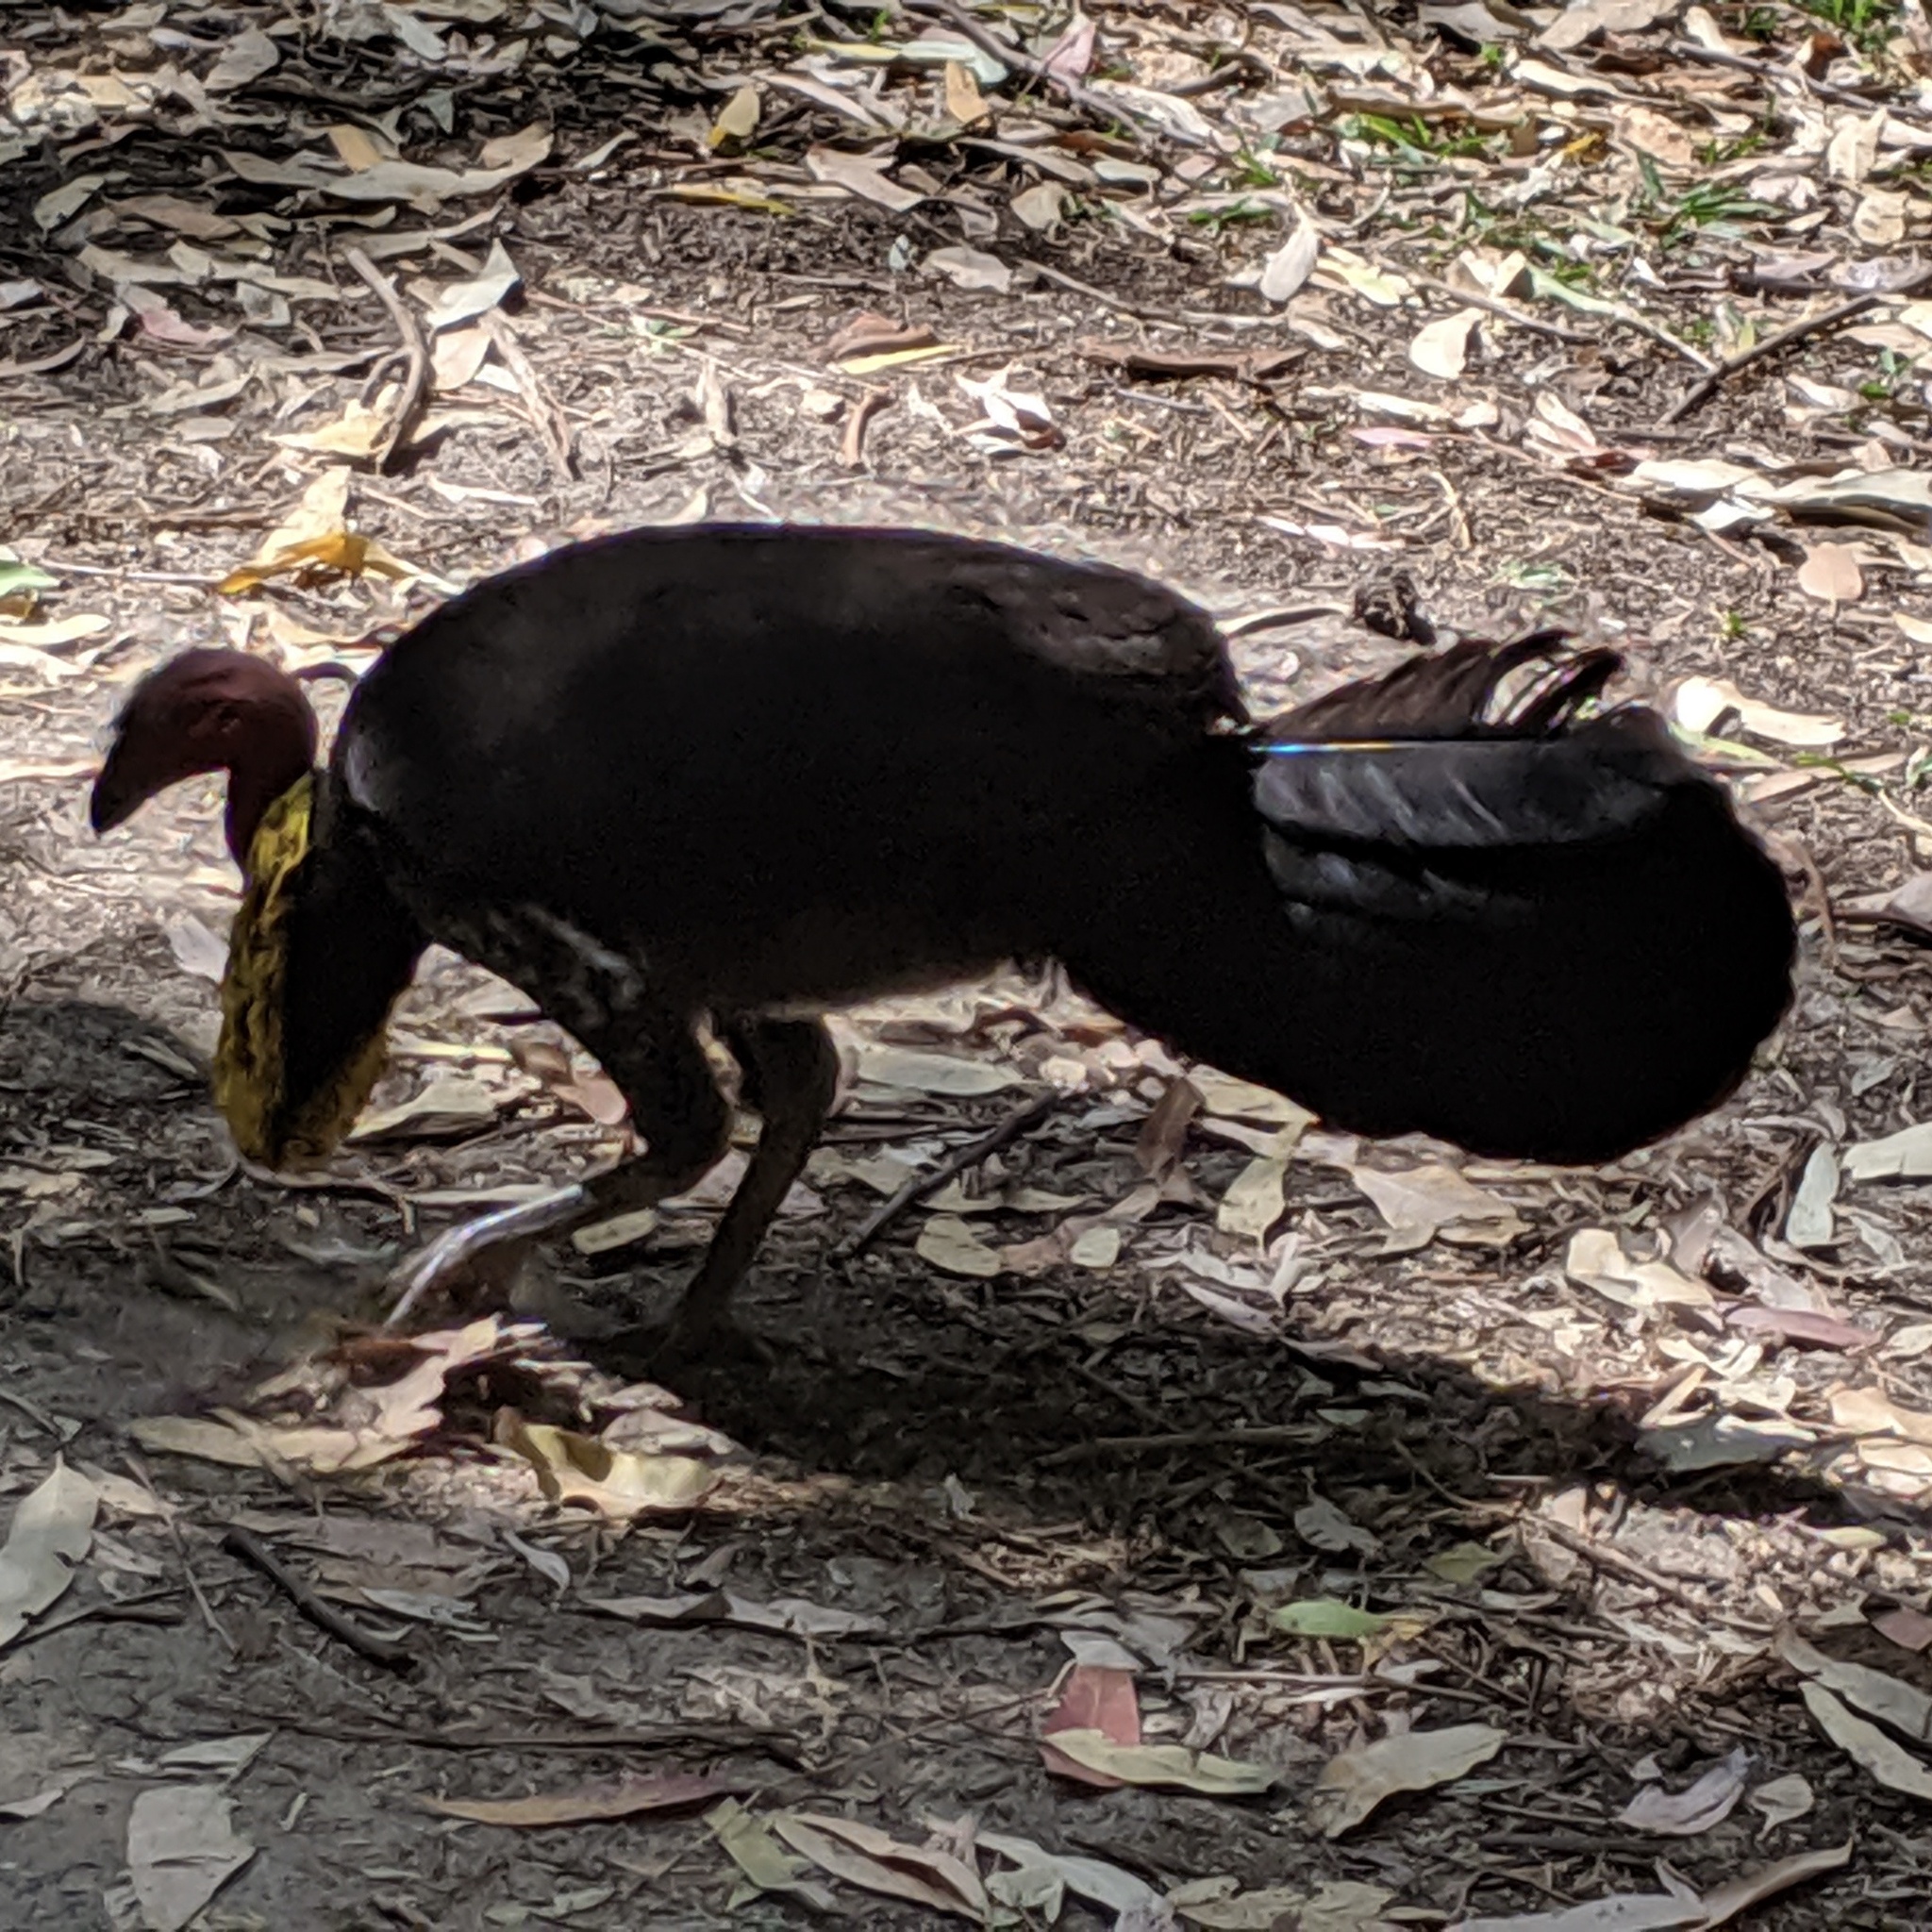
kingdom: Animalia
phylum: Chordata
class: Aves
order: Galliformes
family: Megapodiidae
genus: Alectura
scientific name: Alectura lathami
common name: Australian brushturkey
